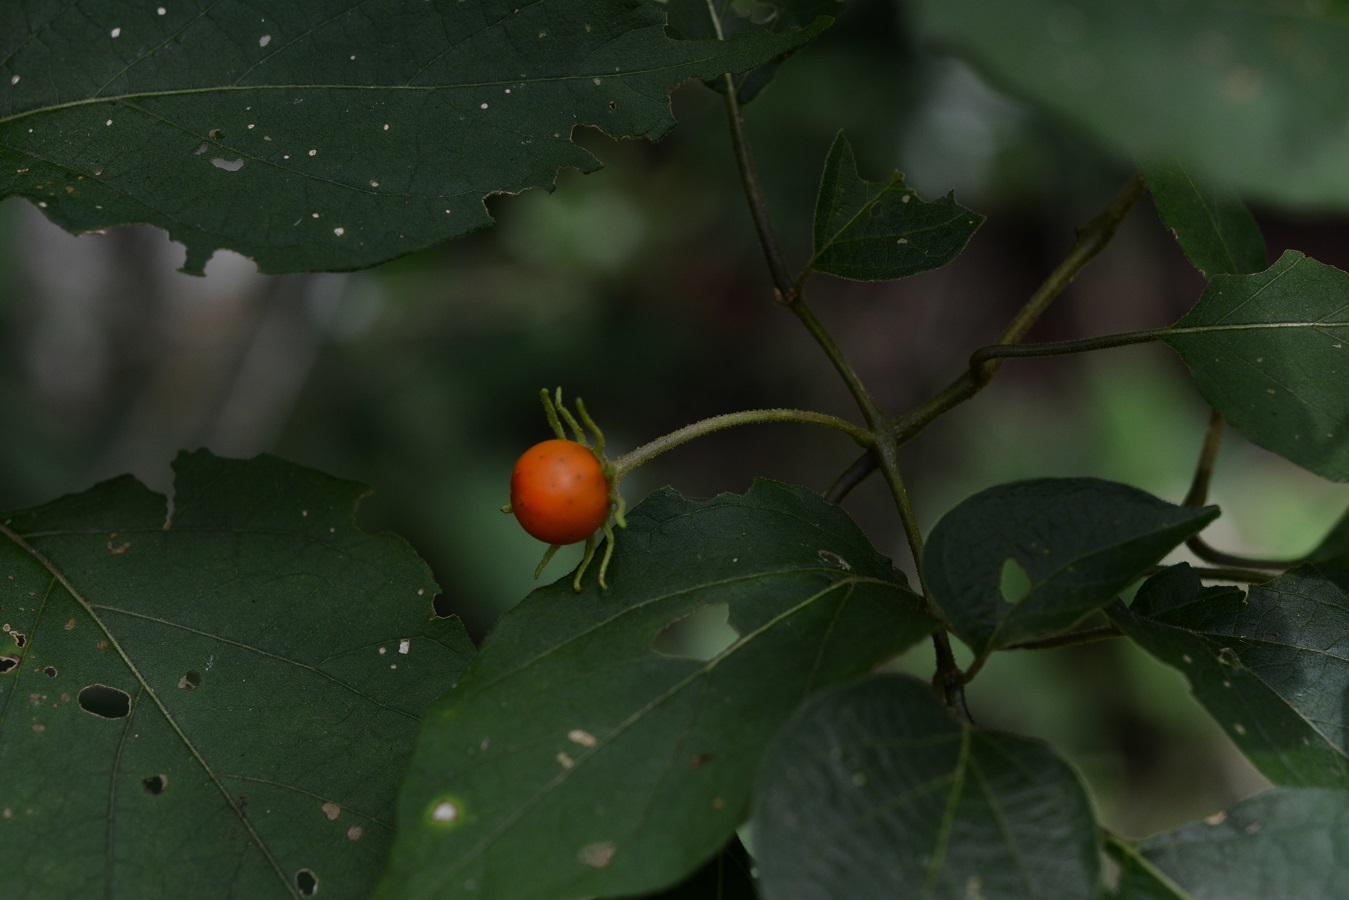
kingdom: Plantae
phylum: Tracheophyta
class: Magnoliopsida
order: Solanales
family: Solanaceae
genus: Lycianthes
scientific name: Lycianthes scandens
